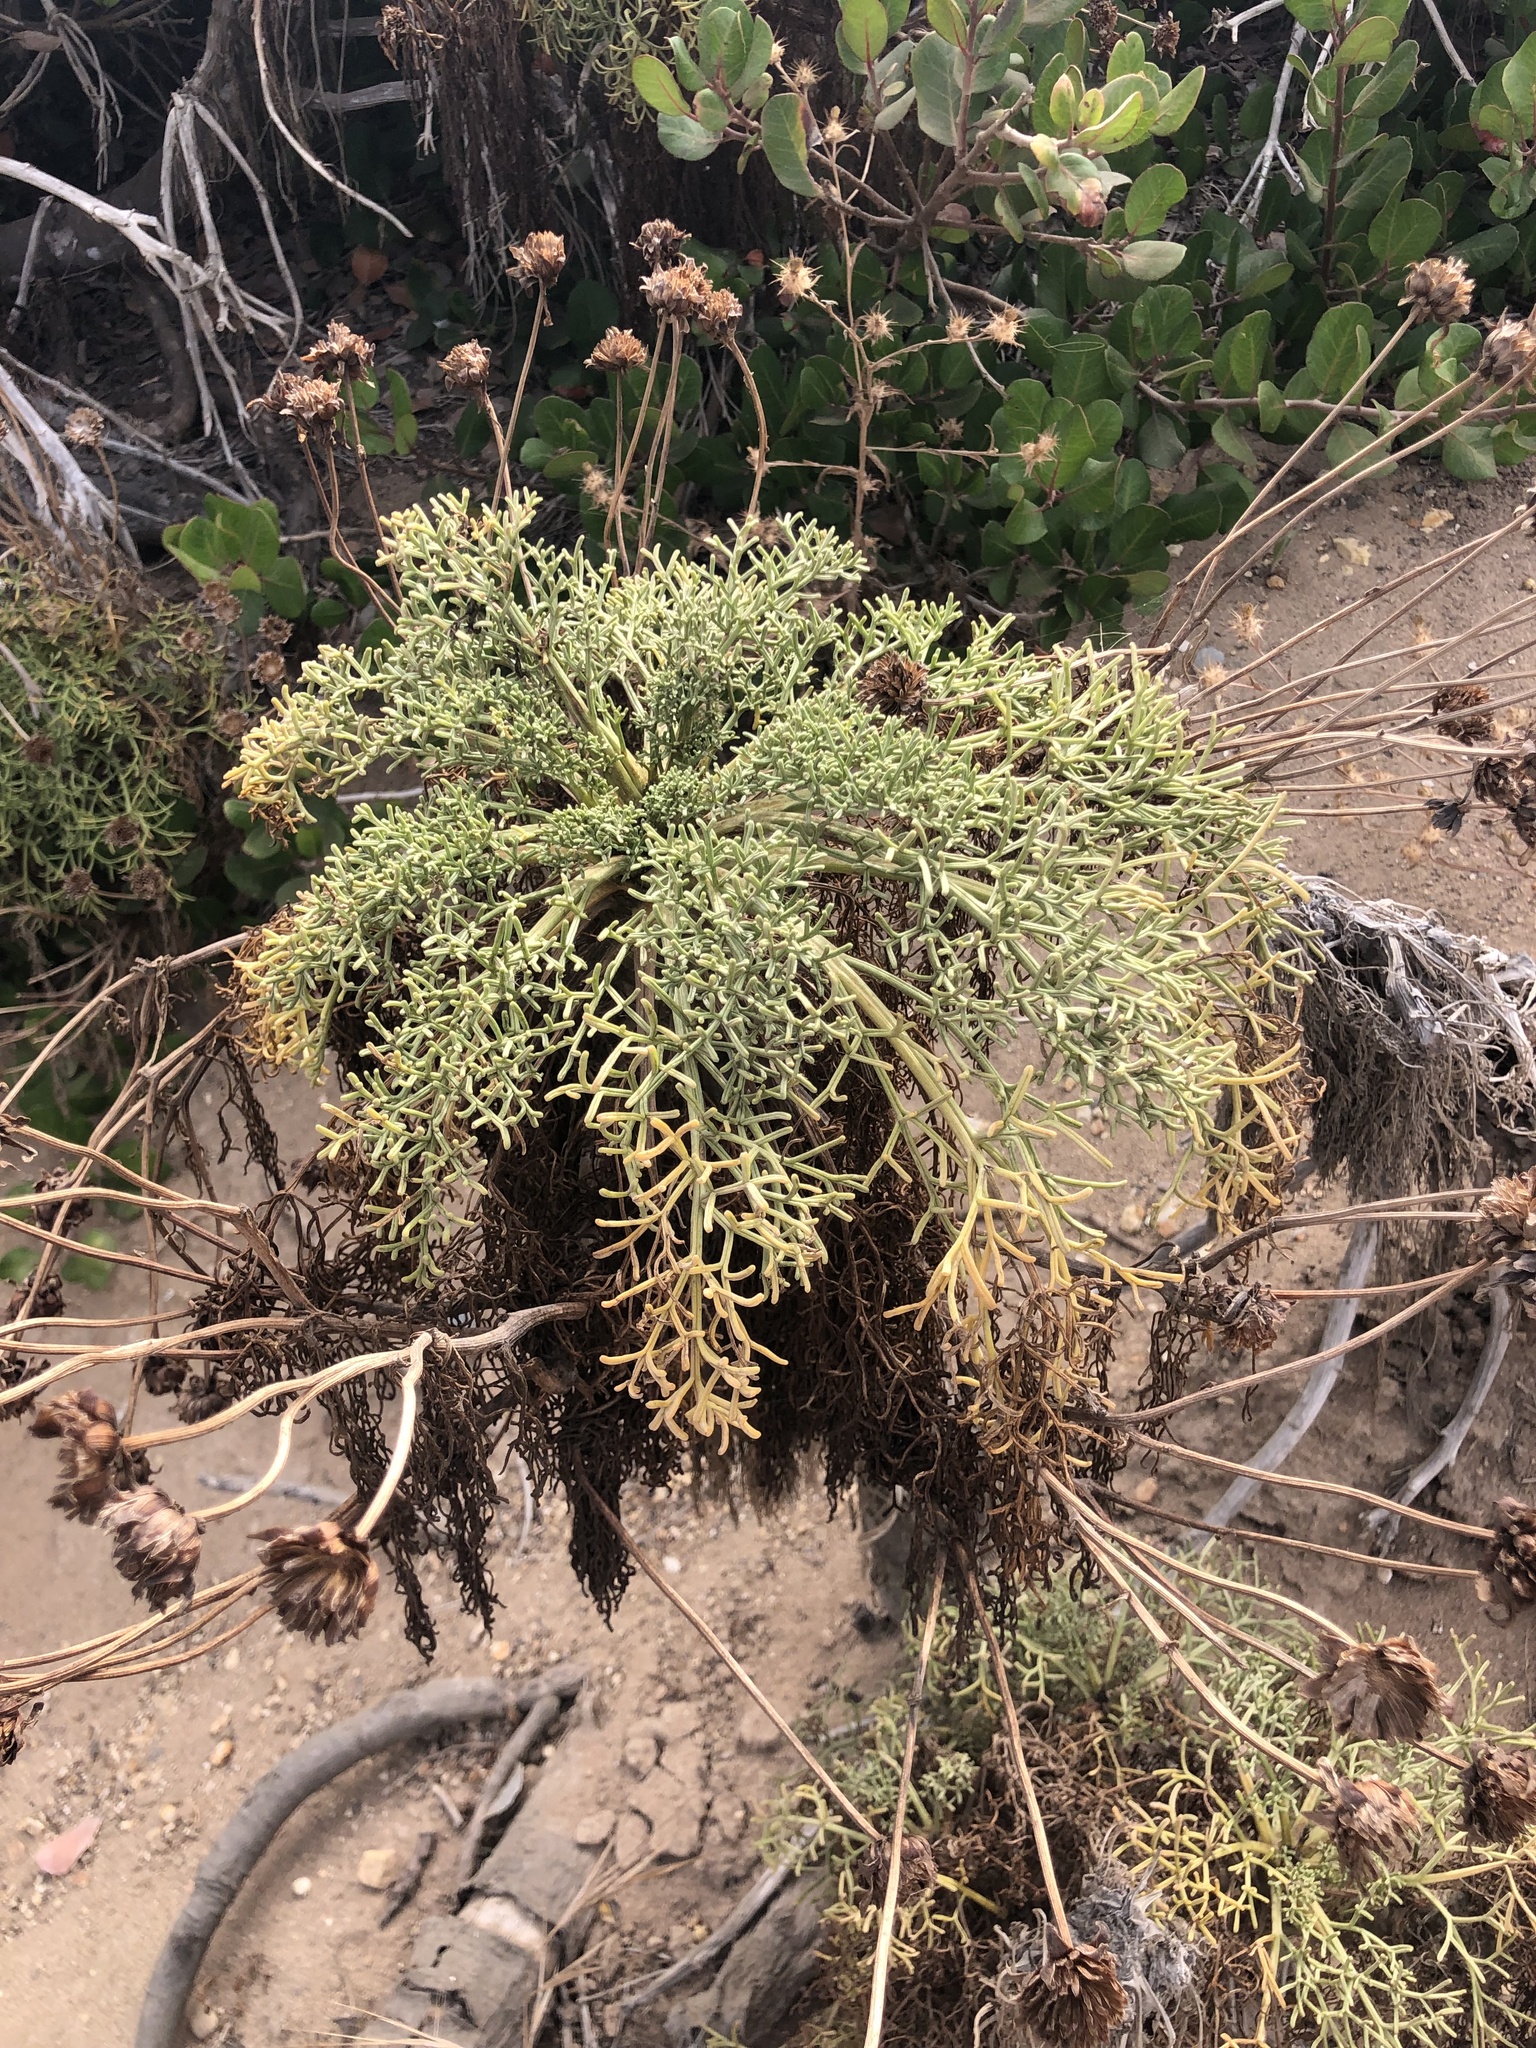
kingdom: Plantae
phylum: Tracheophyta
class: Magnoliopsida
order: Asterales
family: Asteraceae
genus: Coreopsis
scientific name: Coreopsis gigantea
